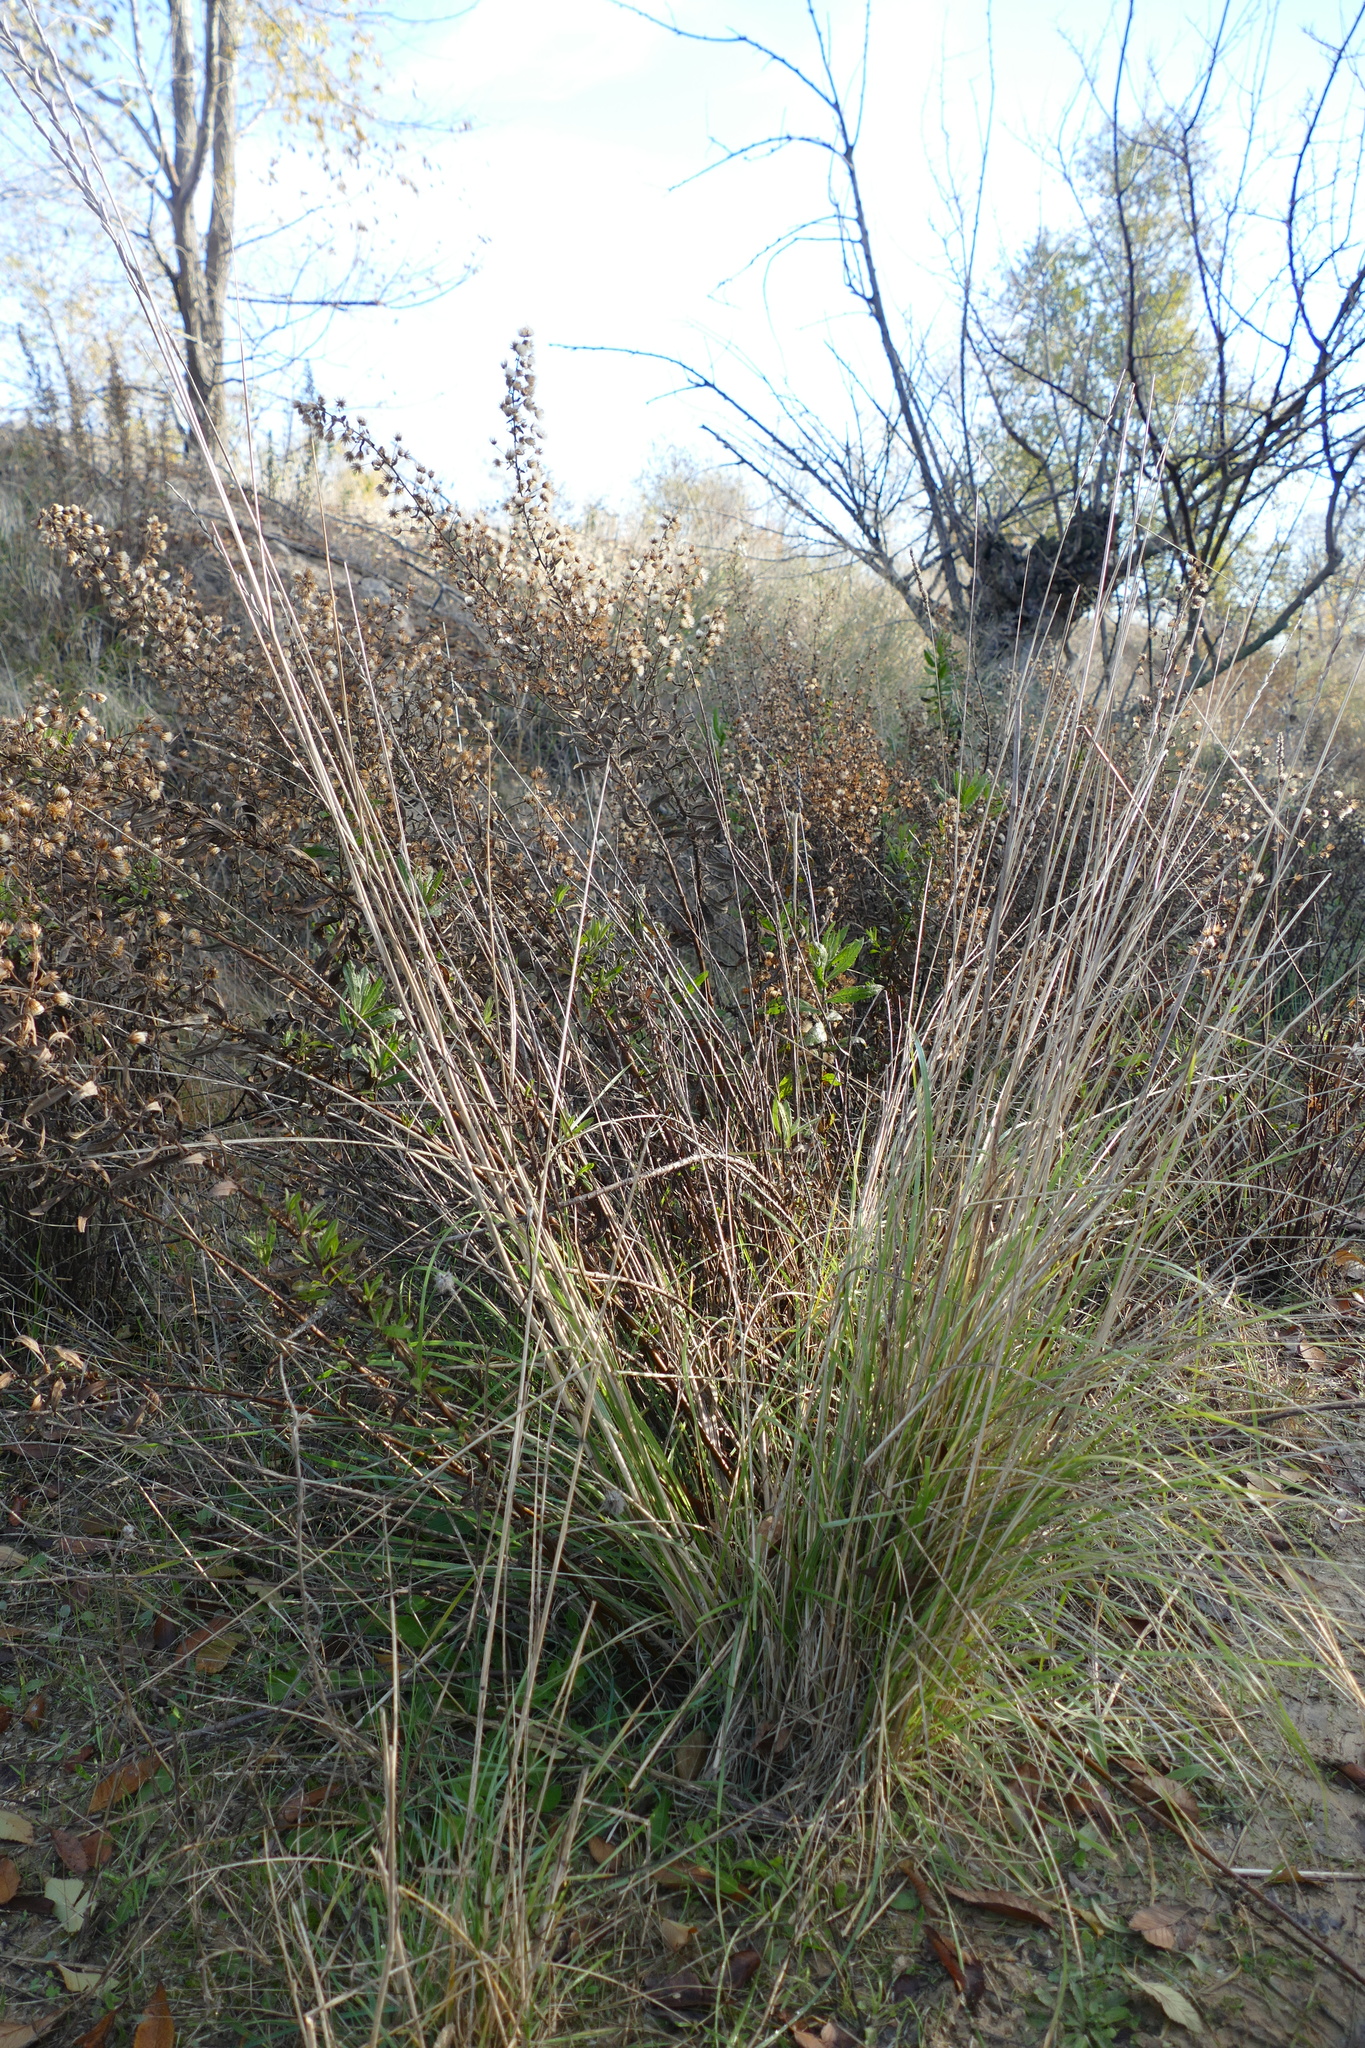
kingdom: Plantae
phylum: Tracheophyta
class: Liliopsida
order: Poales
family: Poaceae
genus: Elymus
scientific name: Elymus repens
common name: Quackgrass
